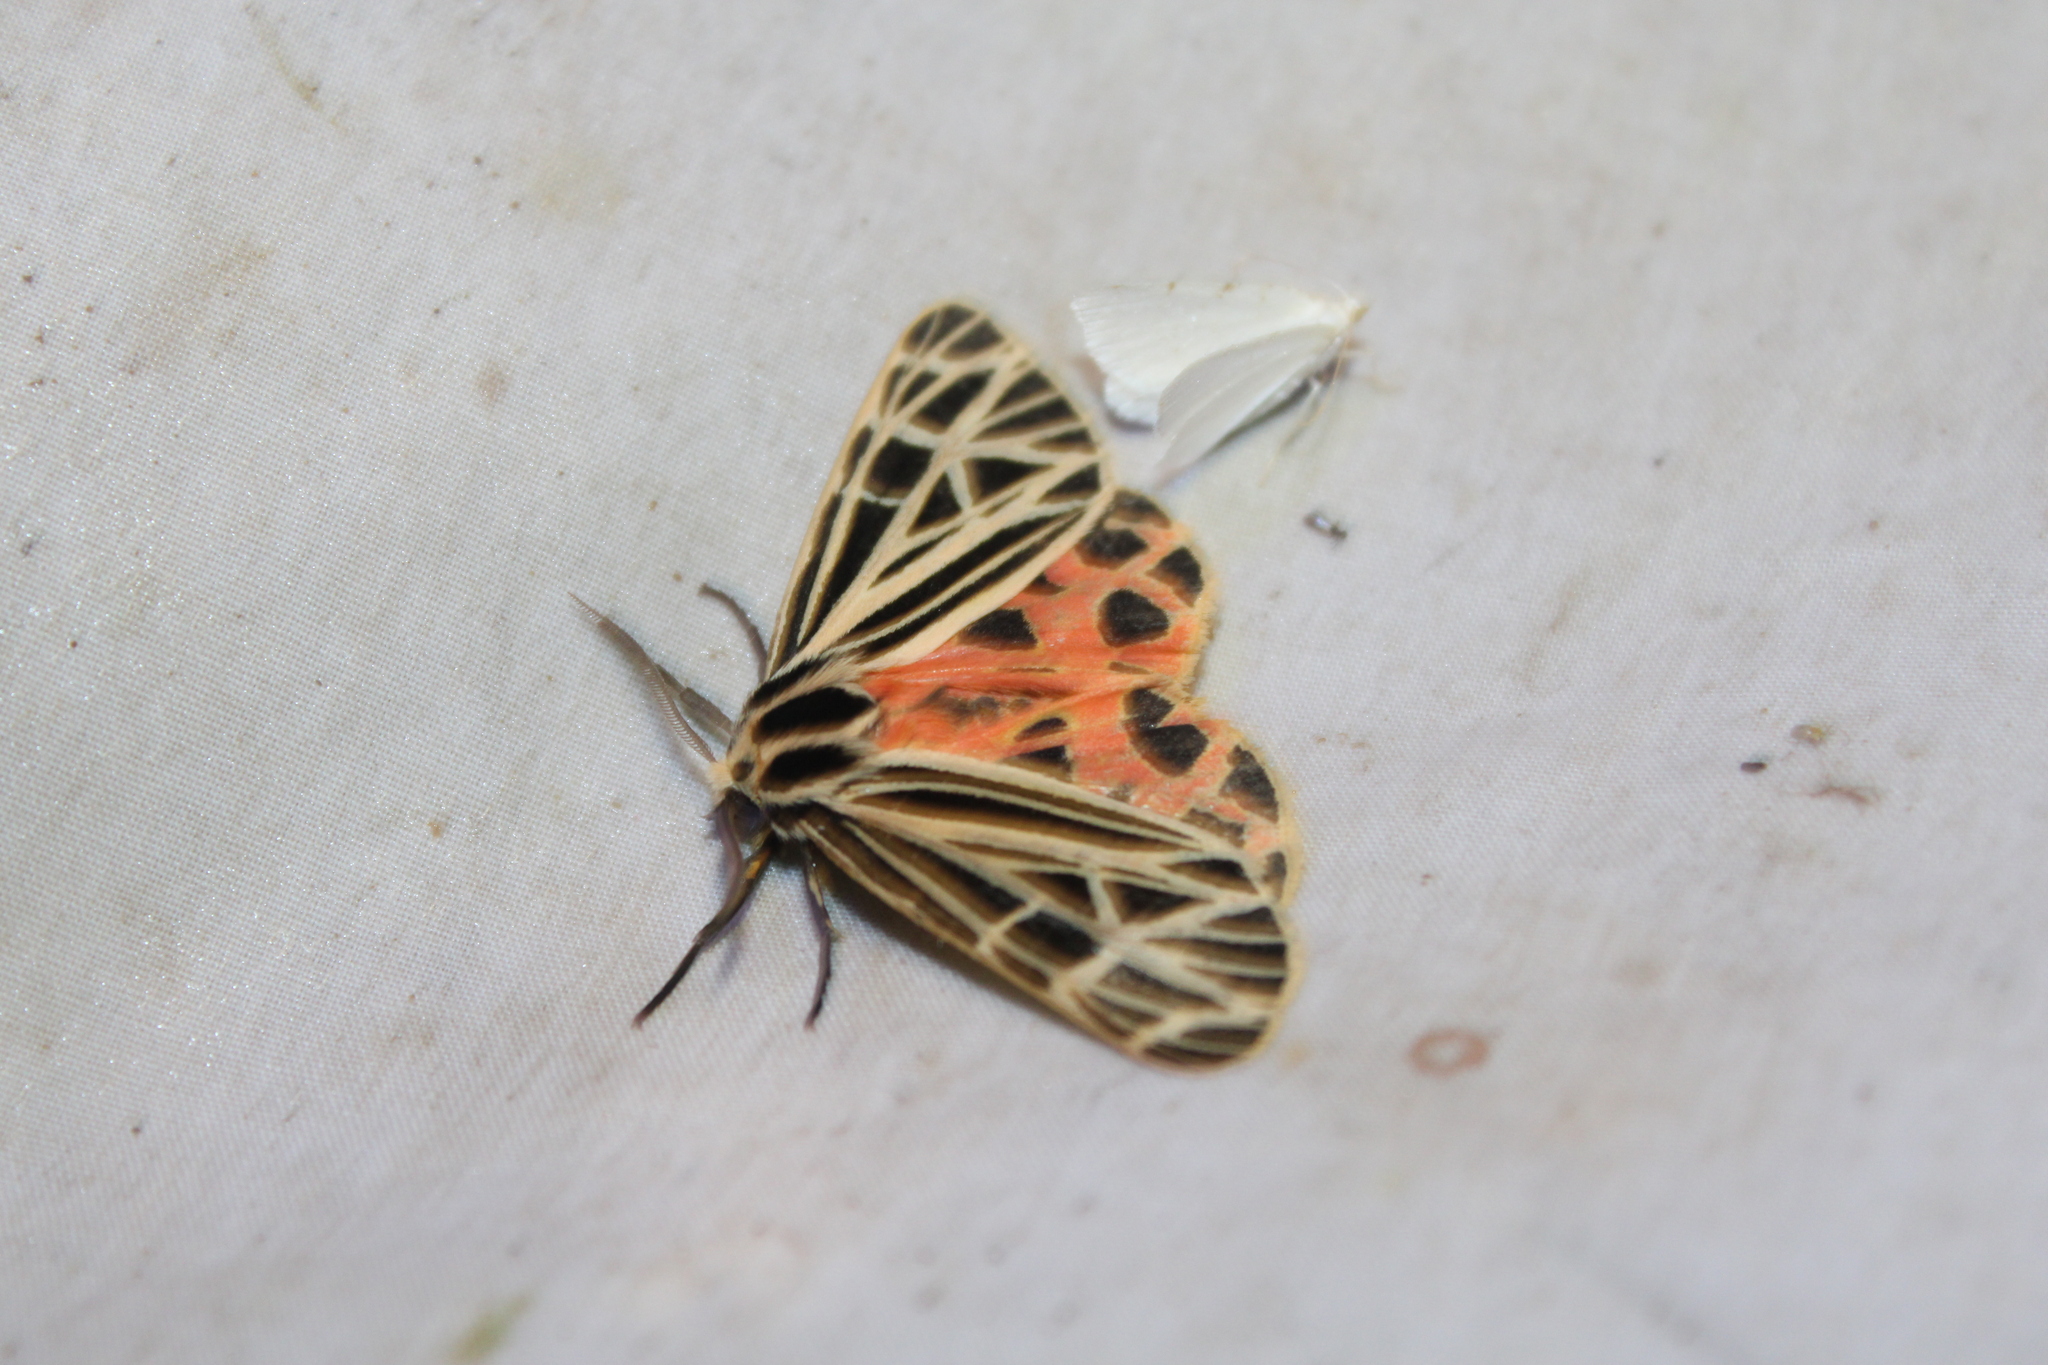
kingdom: Animalia
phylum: Arthropoda
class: Insecta
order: Lepidoptera
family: Erebidae
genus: Grammia
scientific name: Grammia virgo
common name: Virgin tiger moth
